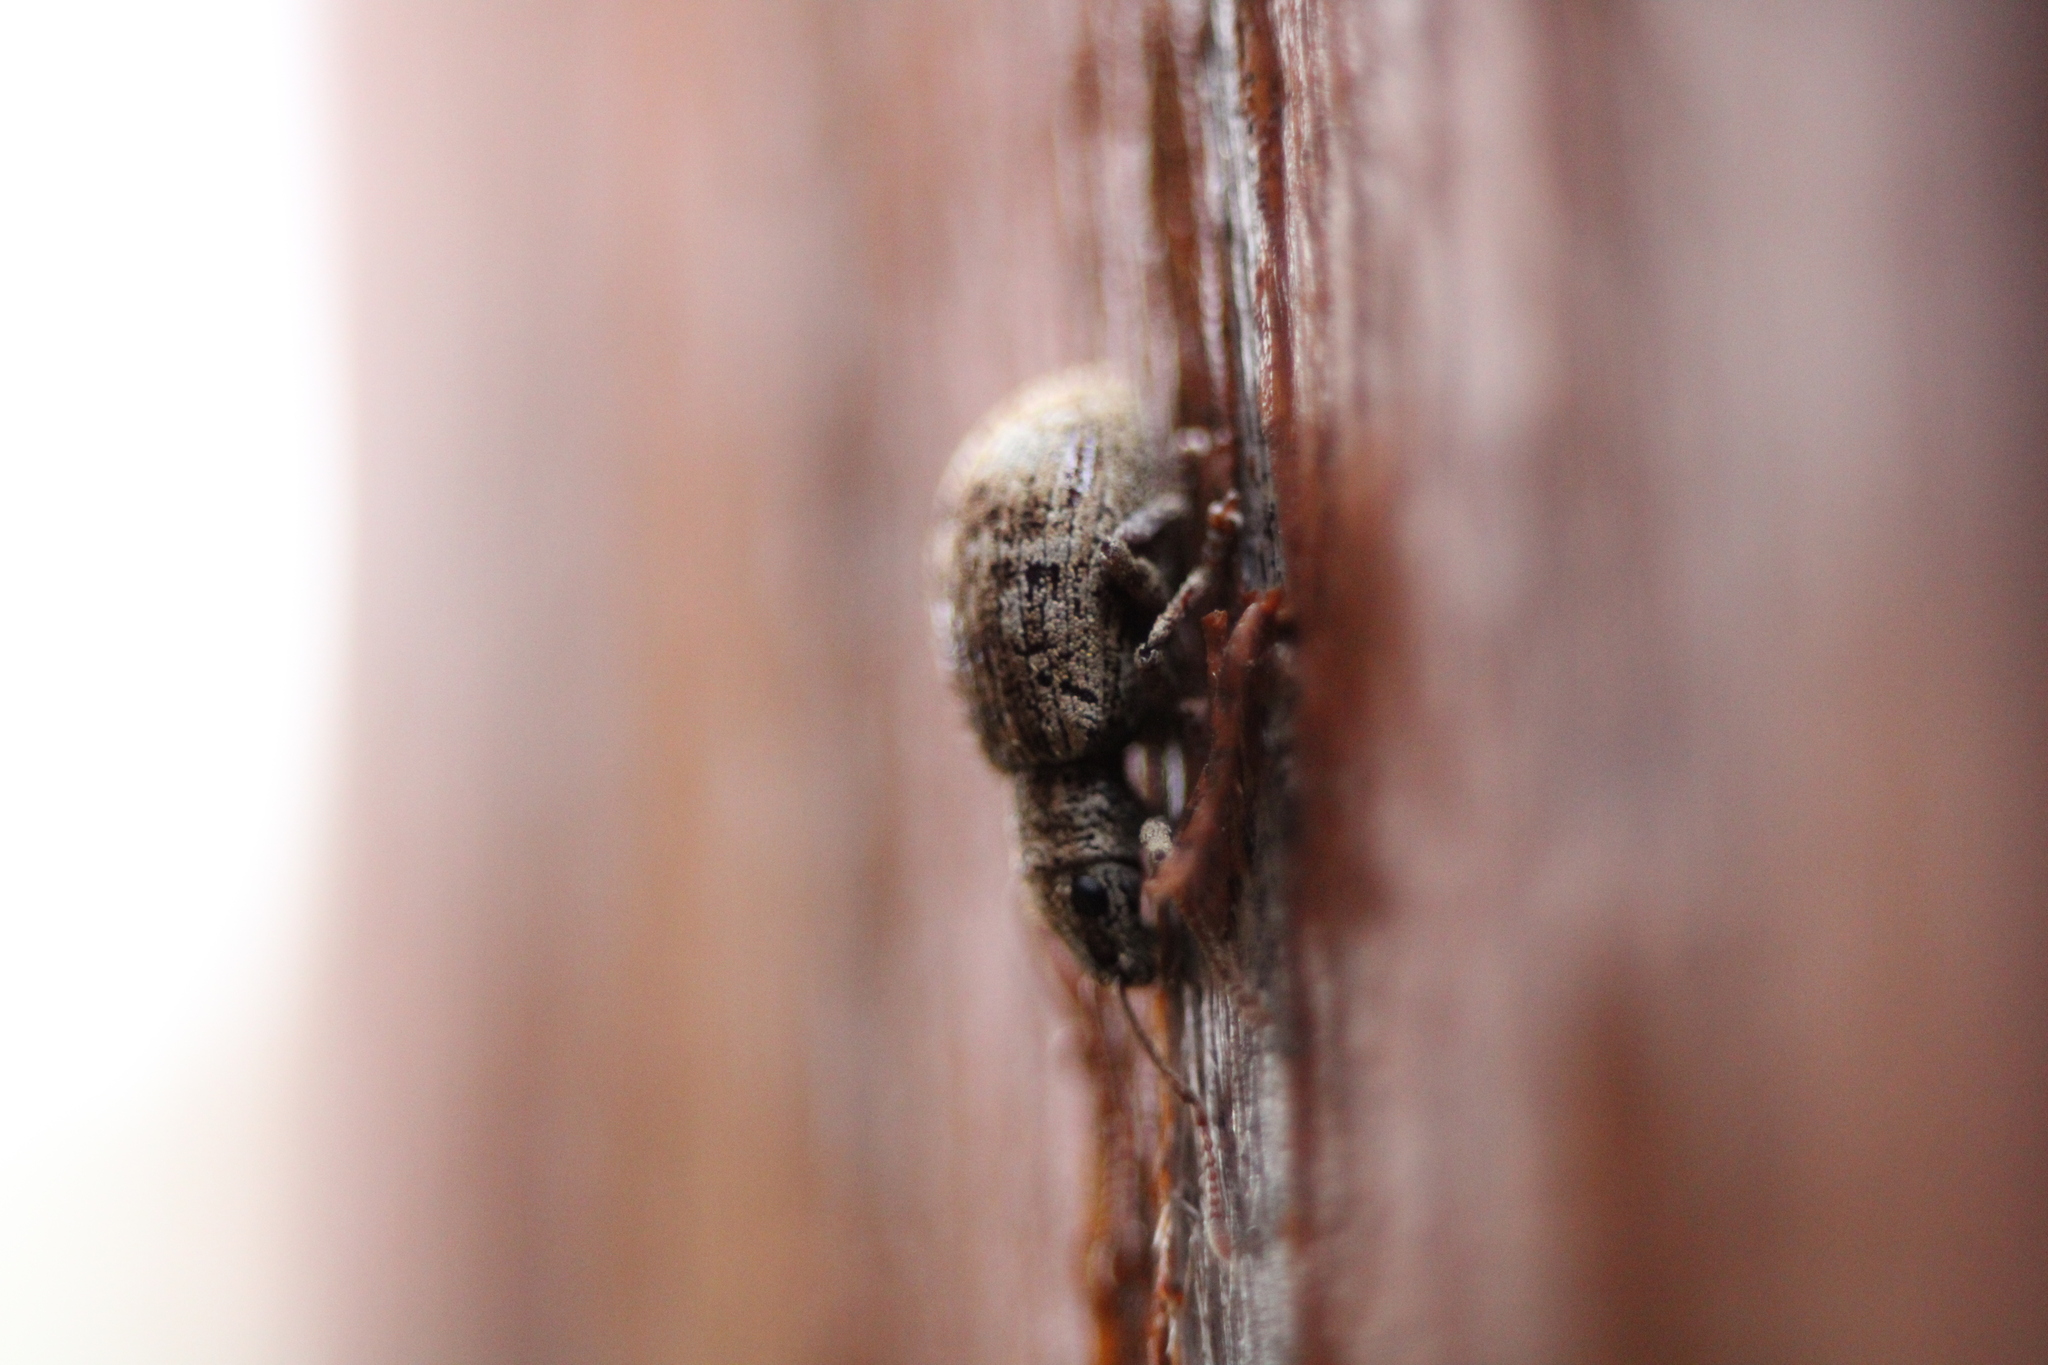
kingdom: Animalia
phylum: Arthropoda
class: Insecta
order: Coleoptera
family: Curculionidae
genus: Pseudoedophrys
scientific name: Pseudoedophrys hilleri
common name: Weevil
